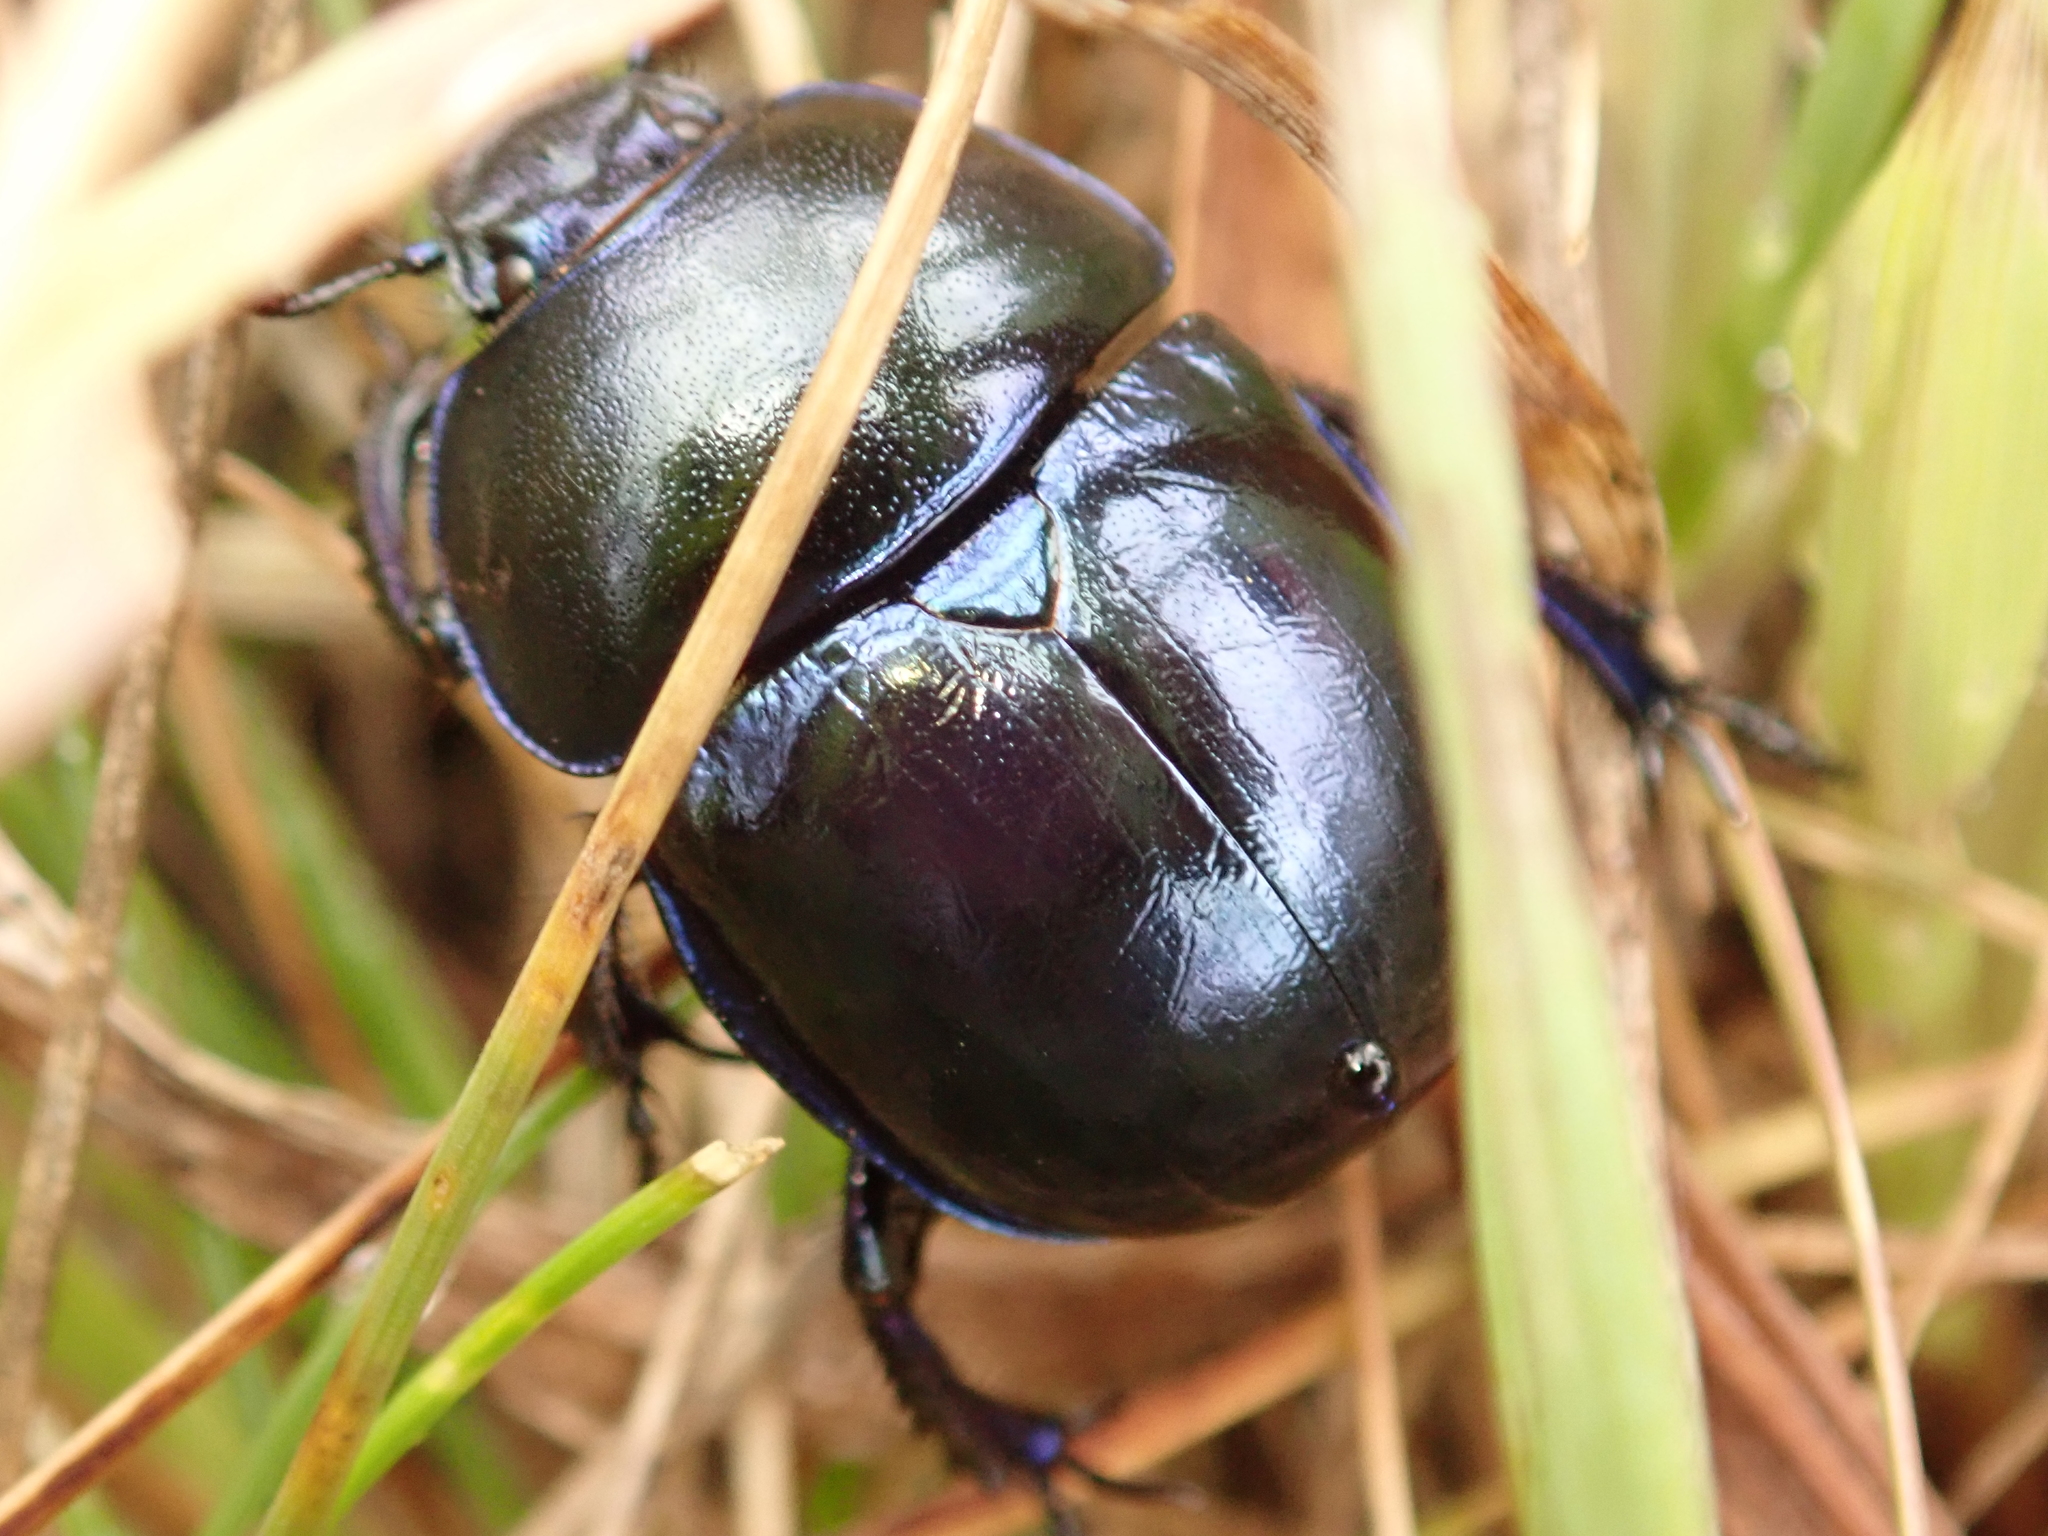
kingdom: Animalia
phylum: Arthropoda
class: Insecta
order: Coleoptera
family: Geotrupidae
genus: Trypocopris
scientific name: Trypocopris vernalis
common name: Spring dumbledor
